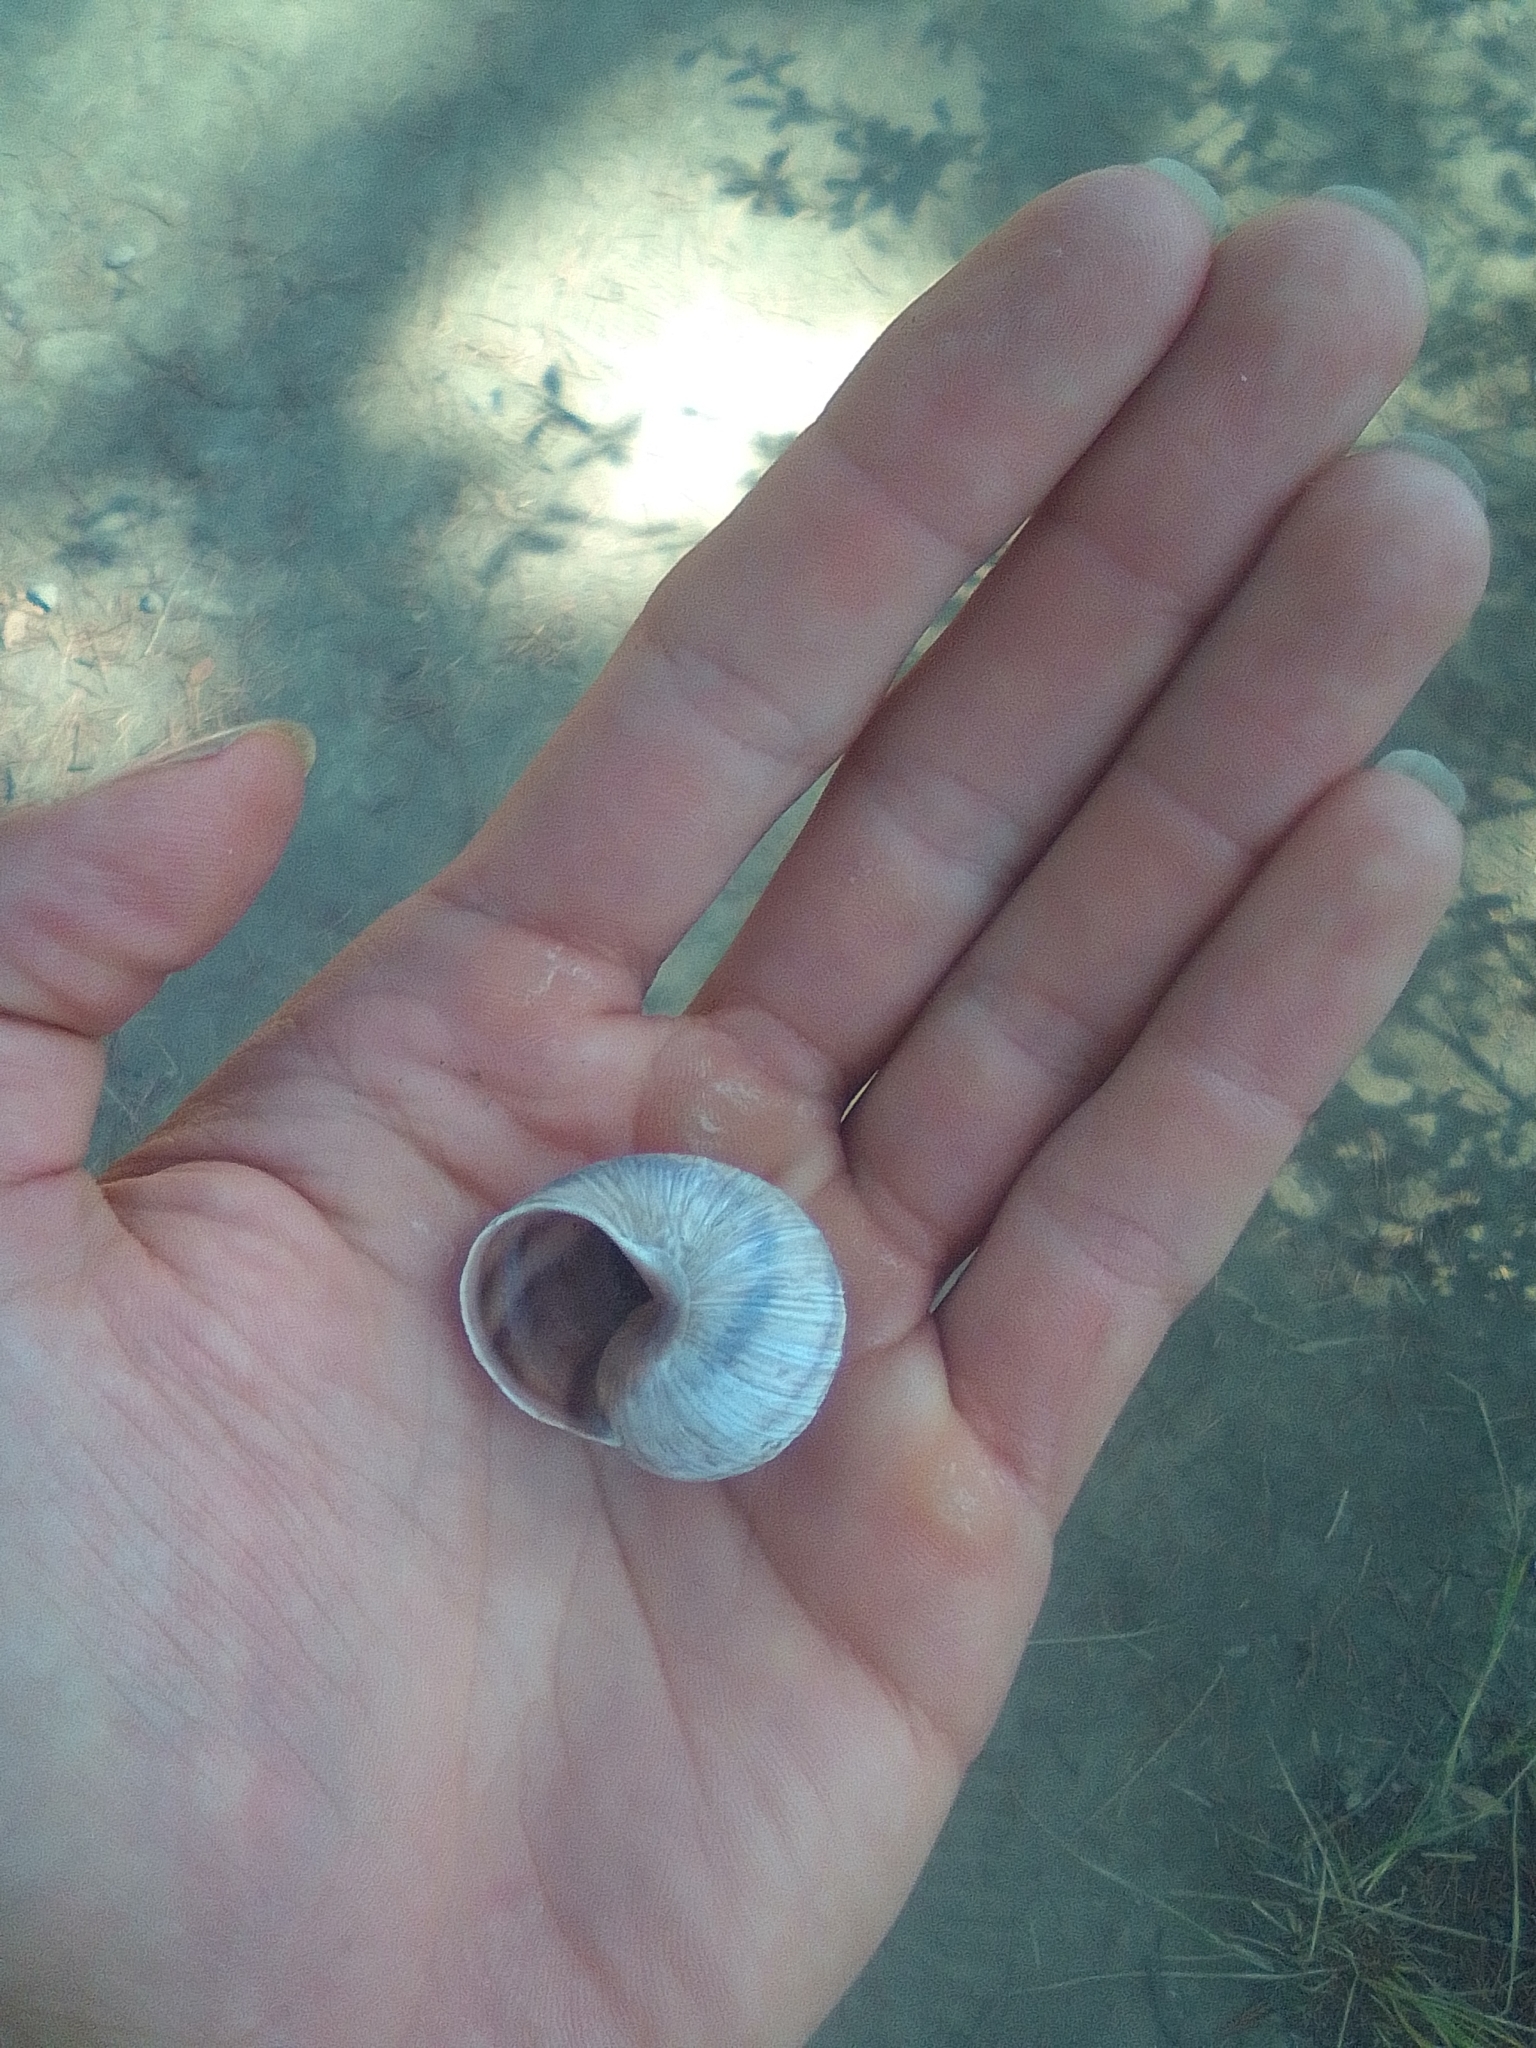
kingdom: Animalia
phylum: Mollusca
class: Gastropoda
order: Stylommatophora
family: Helicidae
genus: Helix
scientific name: Helix albescens
